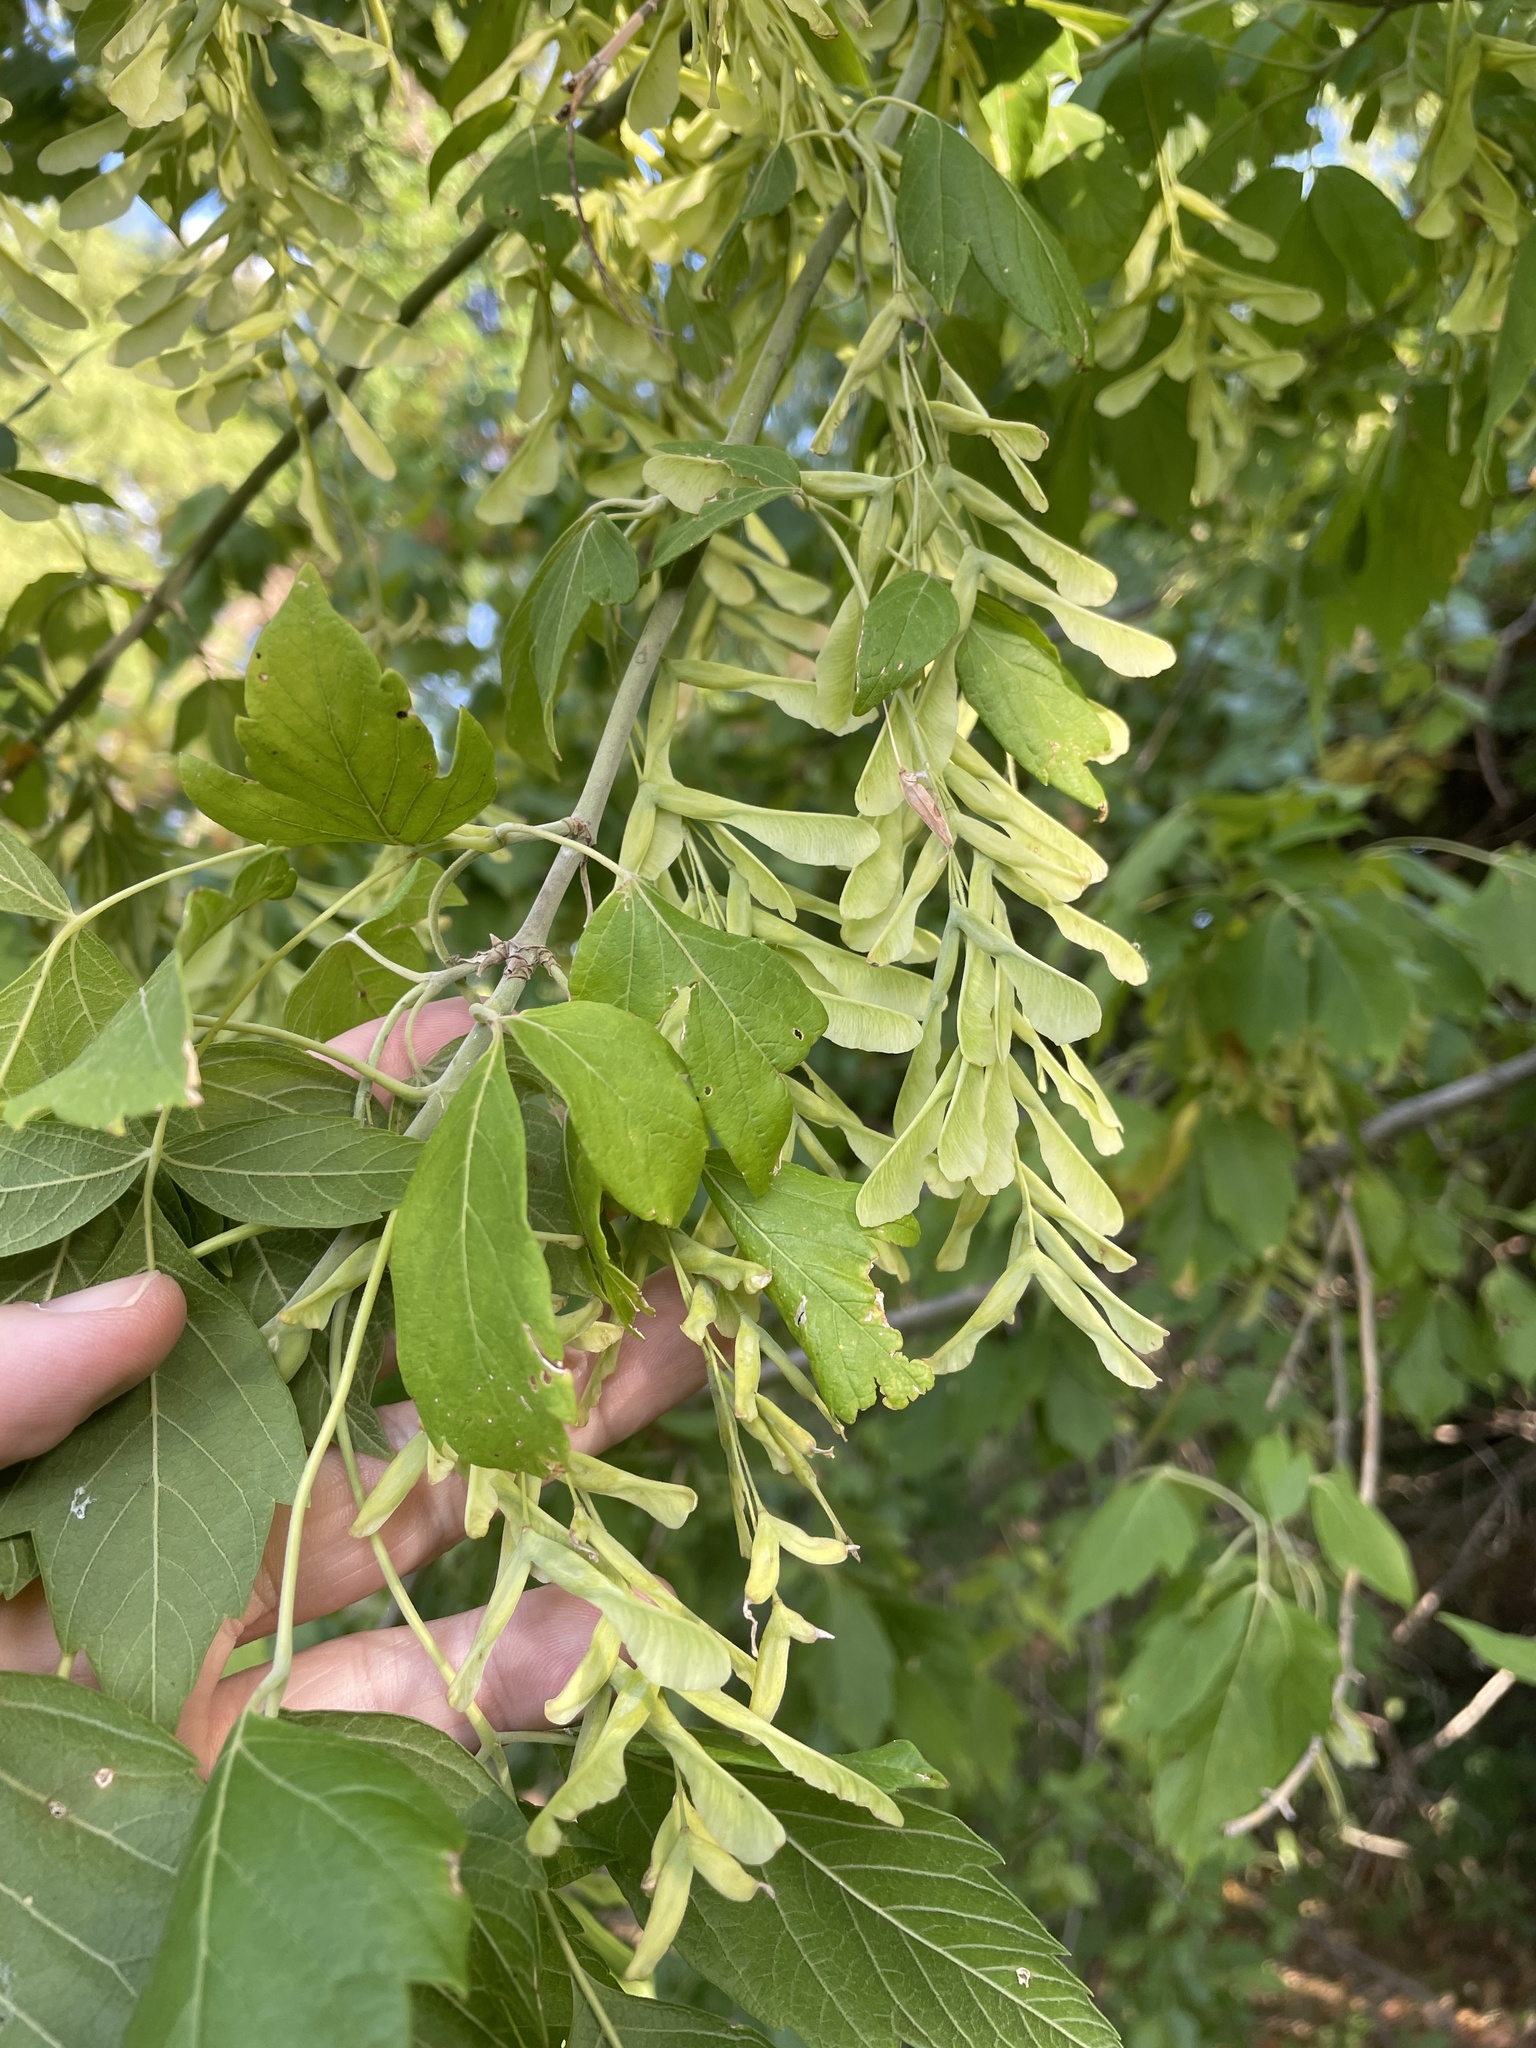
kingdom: Plantae
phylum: Tracheophyta
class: Magnoliopsida
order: Sapindales
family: Sapindaceae
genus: Acer
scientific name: Acer negundo
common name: Ashleaf maple
